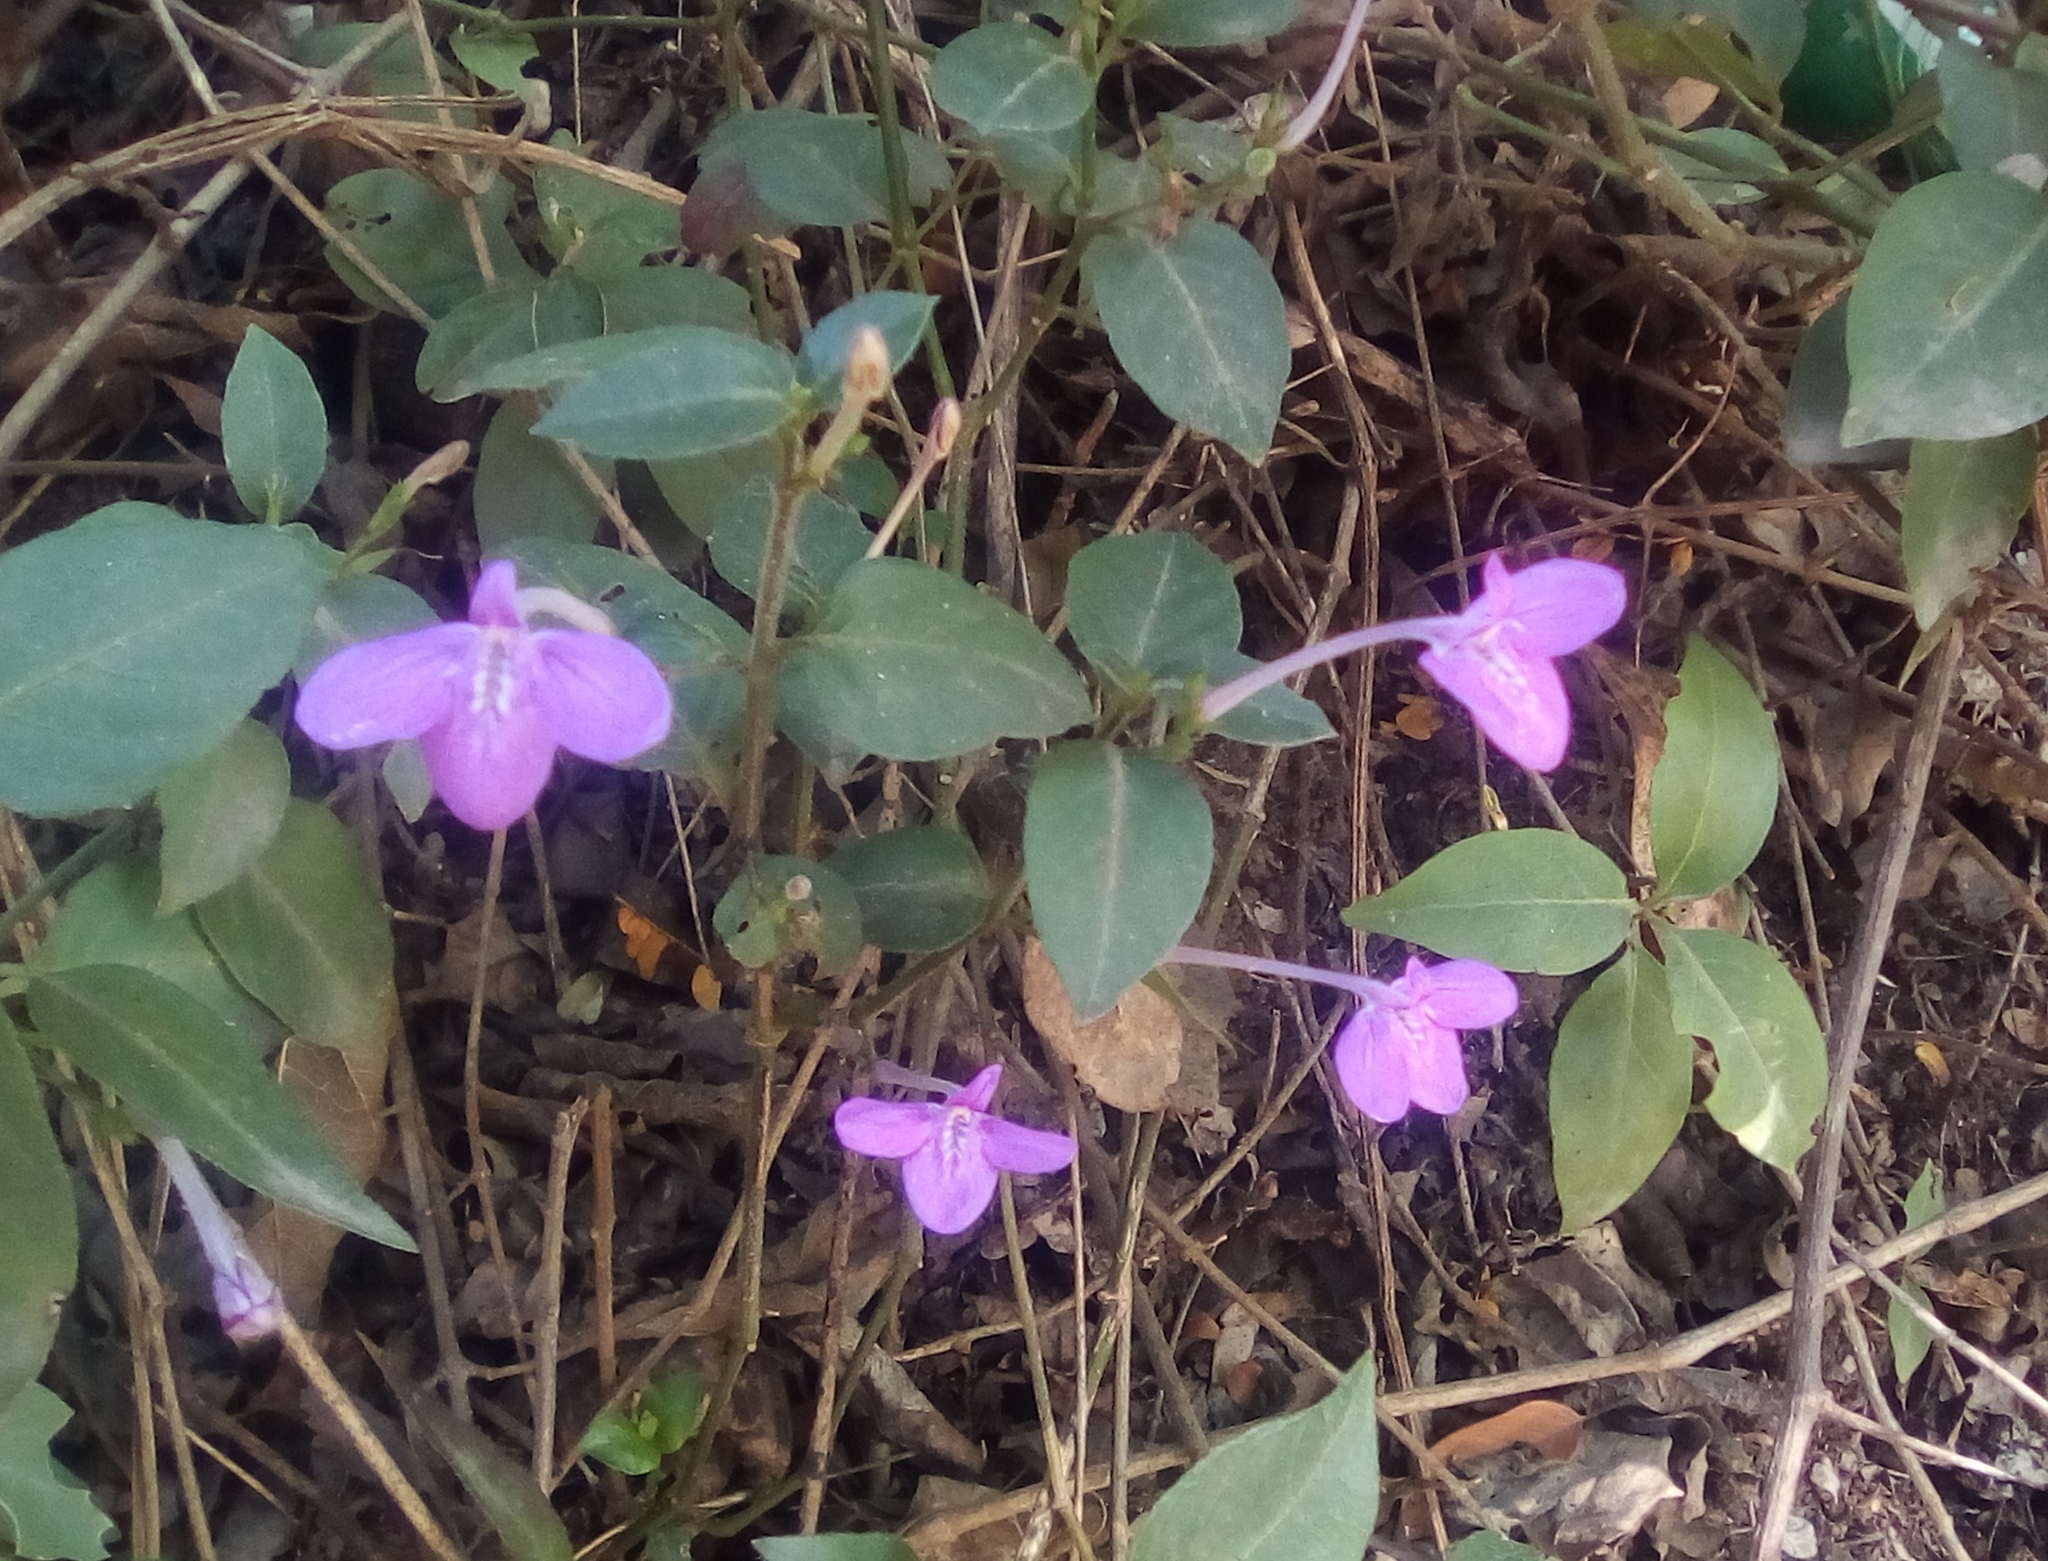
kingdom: Plantae
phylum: Tracheophyta
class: Magnoliopsida
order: Lamiales
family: Acanthaceae
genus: Justicia
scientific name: Justicia pilosella
